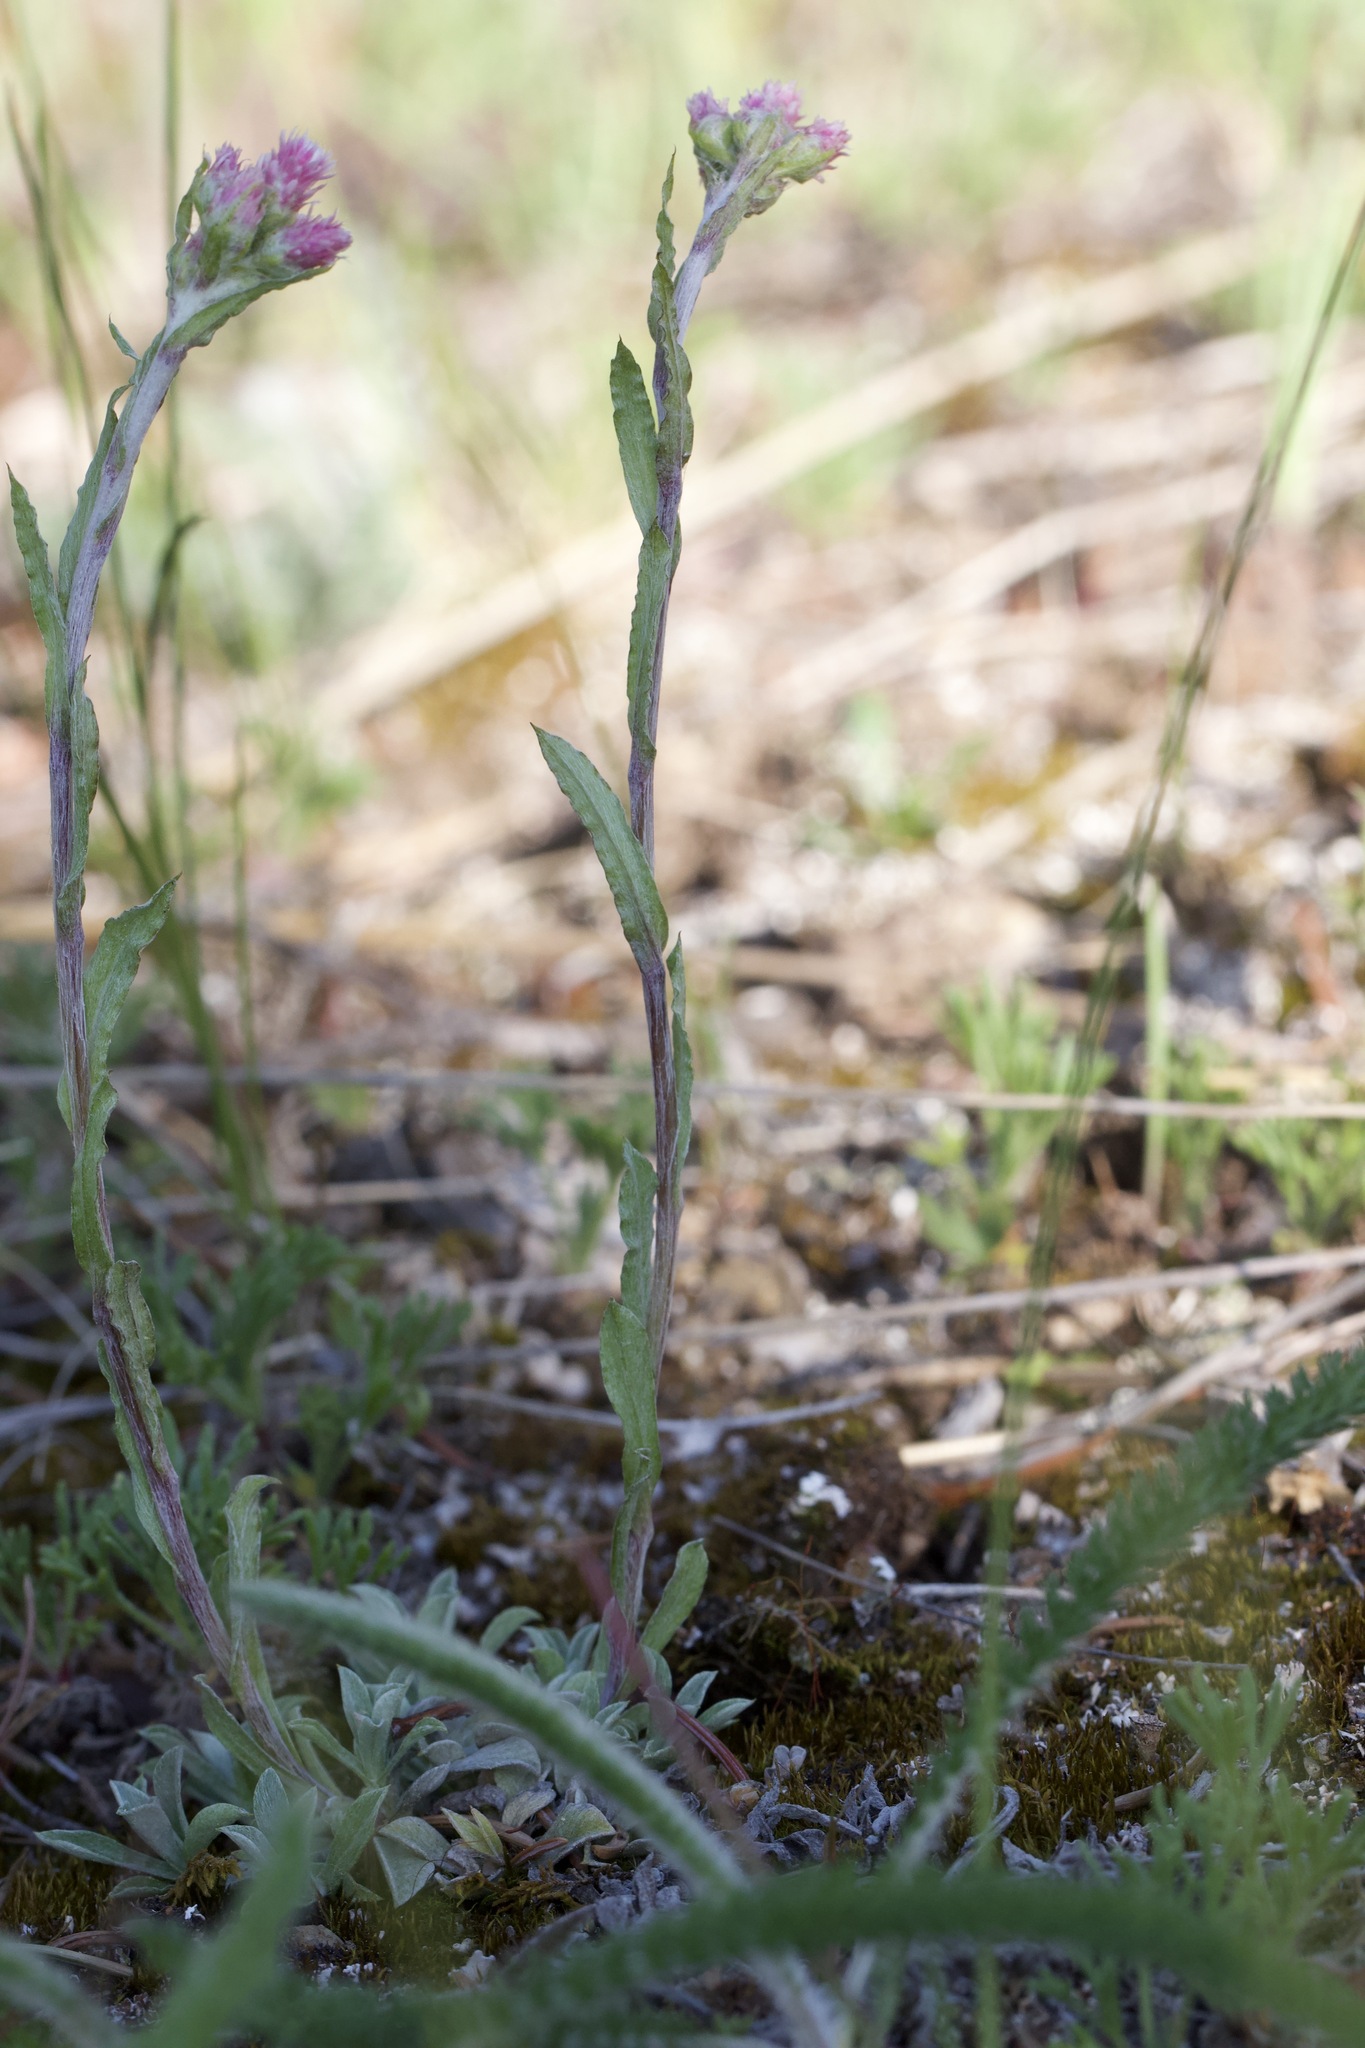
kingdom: Plantae
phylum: Tracheophyta
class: Magnoliopsida
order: Asterales
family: Asteraceae
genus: Antennaria
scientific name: Antennaria rosea
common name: Rosy pussytoes
